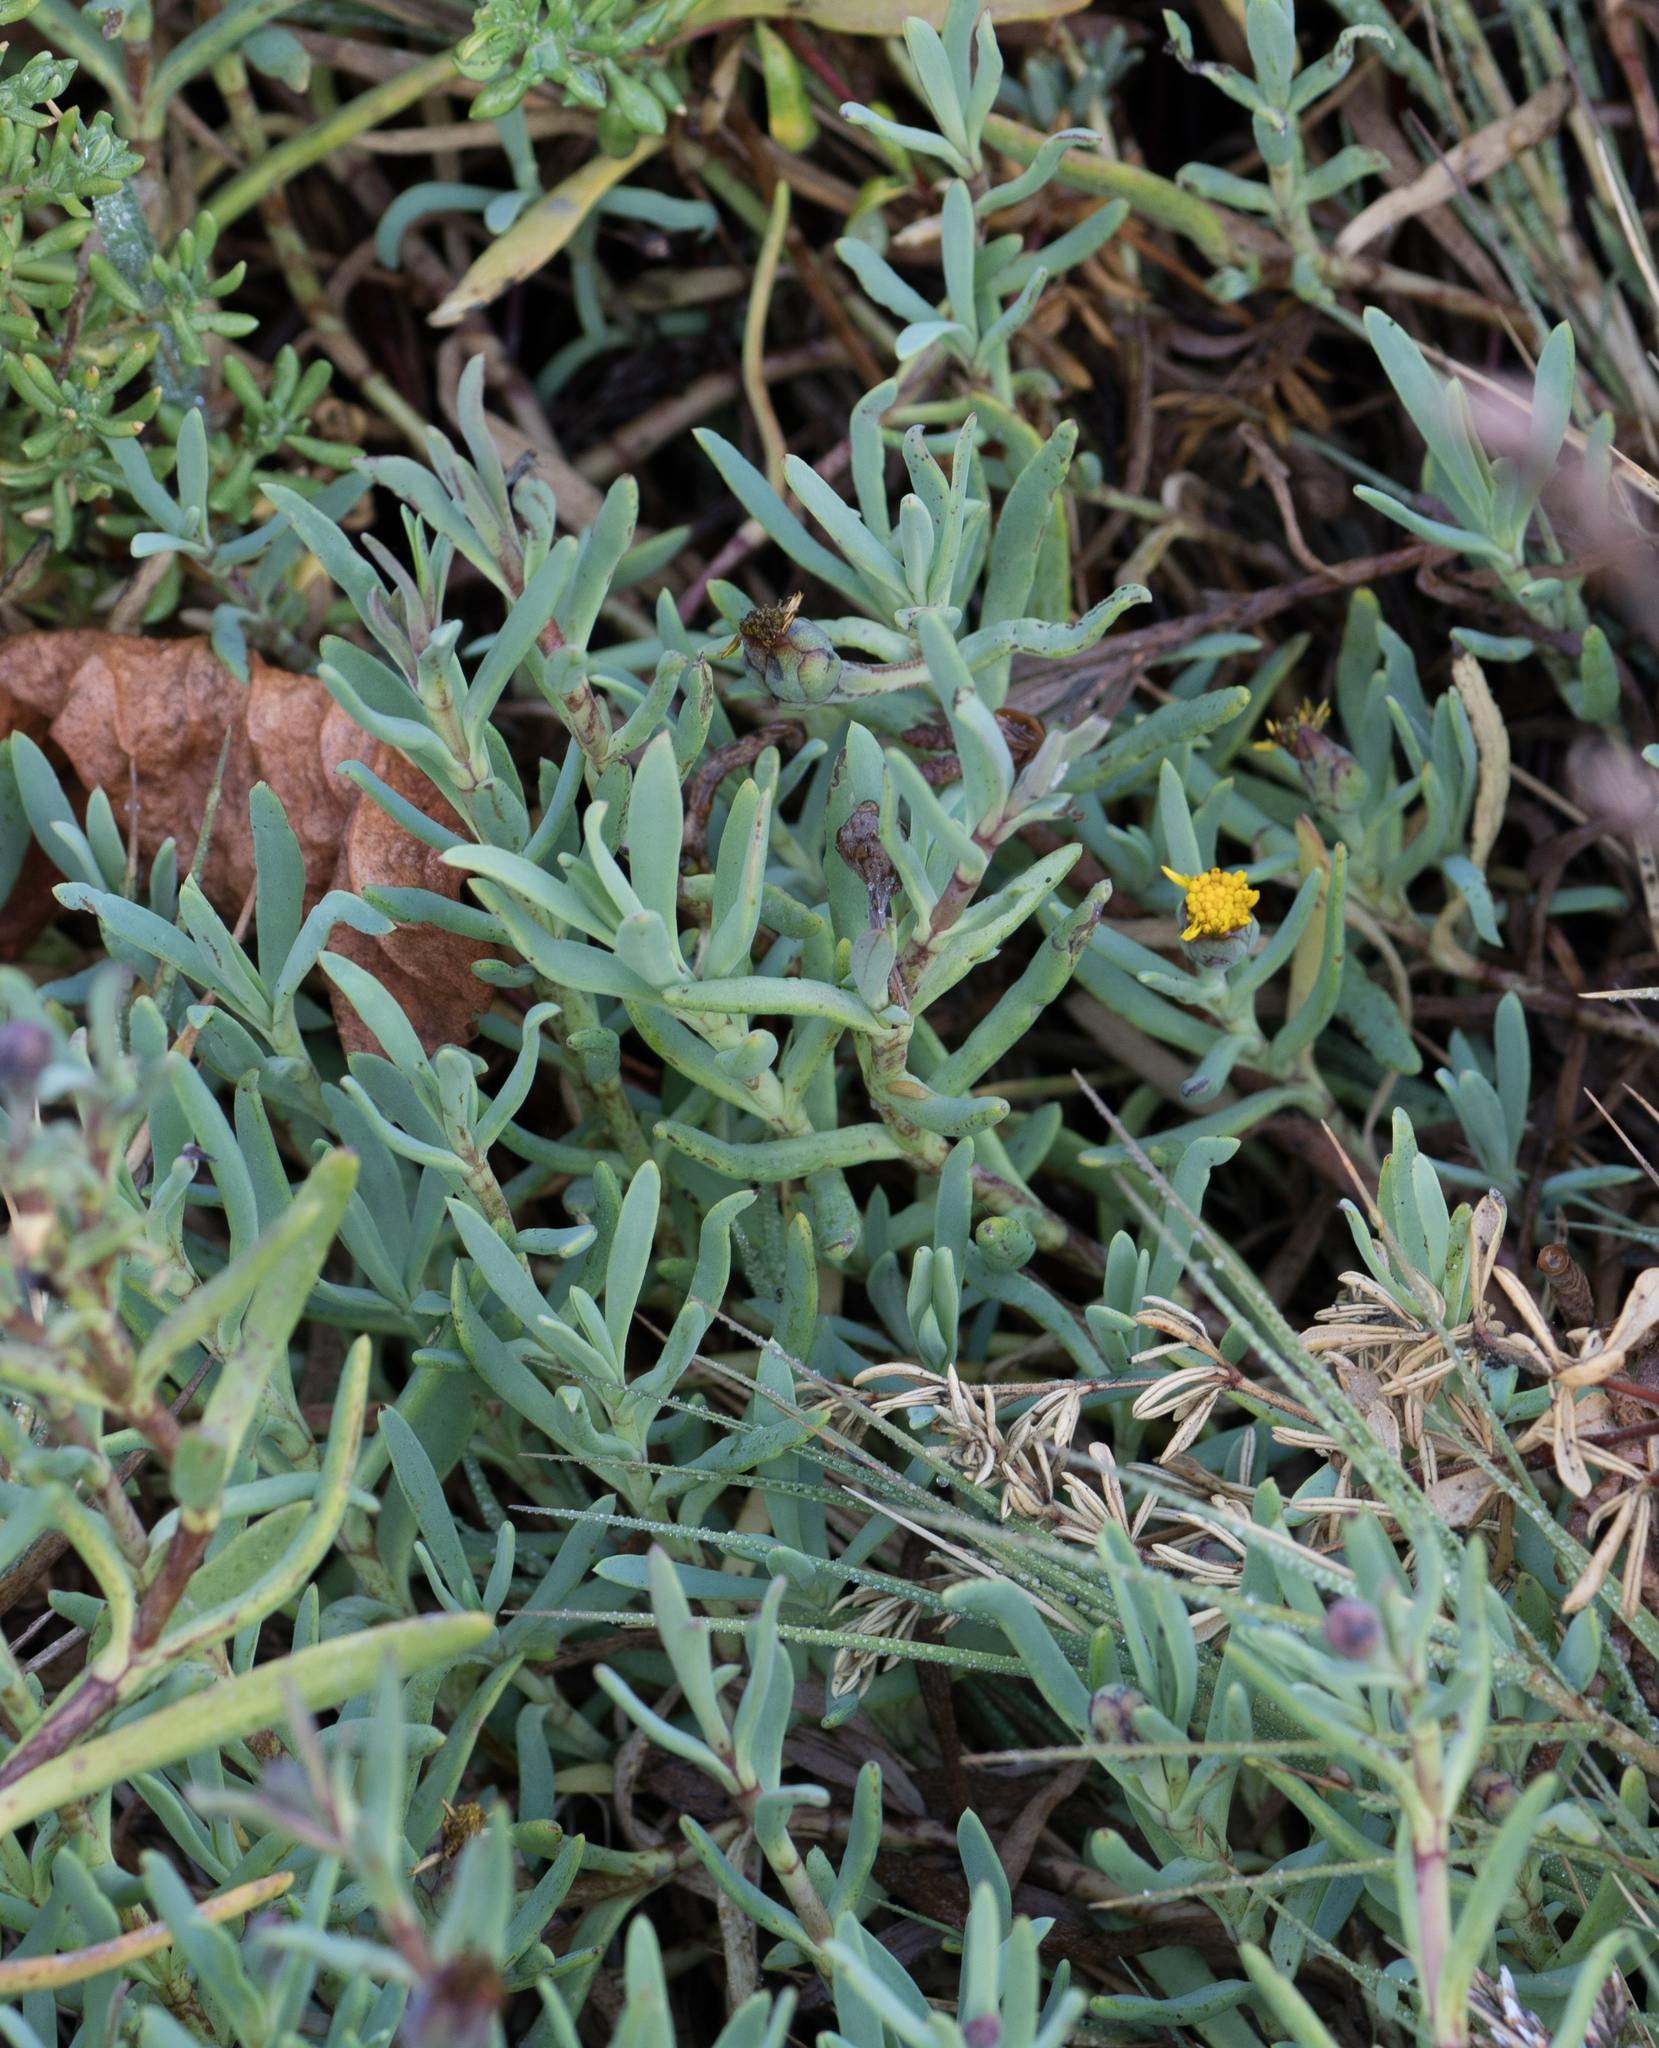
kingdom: Plantae
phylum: Tracheophyta
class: Magnoliopsida
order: Asterales
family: Asteraceae
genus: Jaumea
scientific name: Jaumea carnosa
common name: Fleshy jaumea
